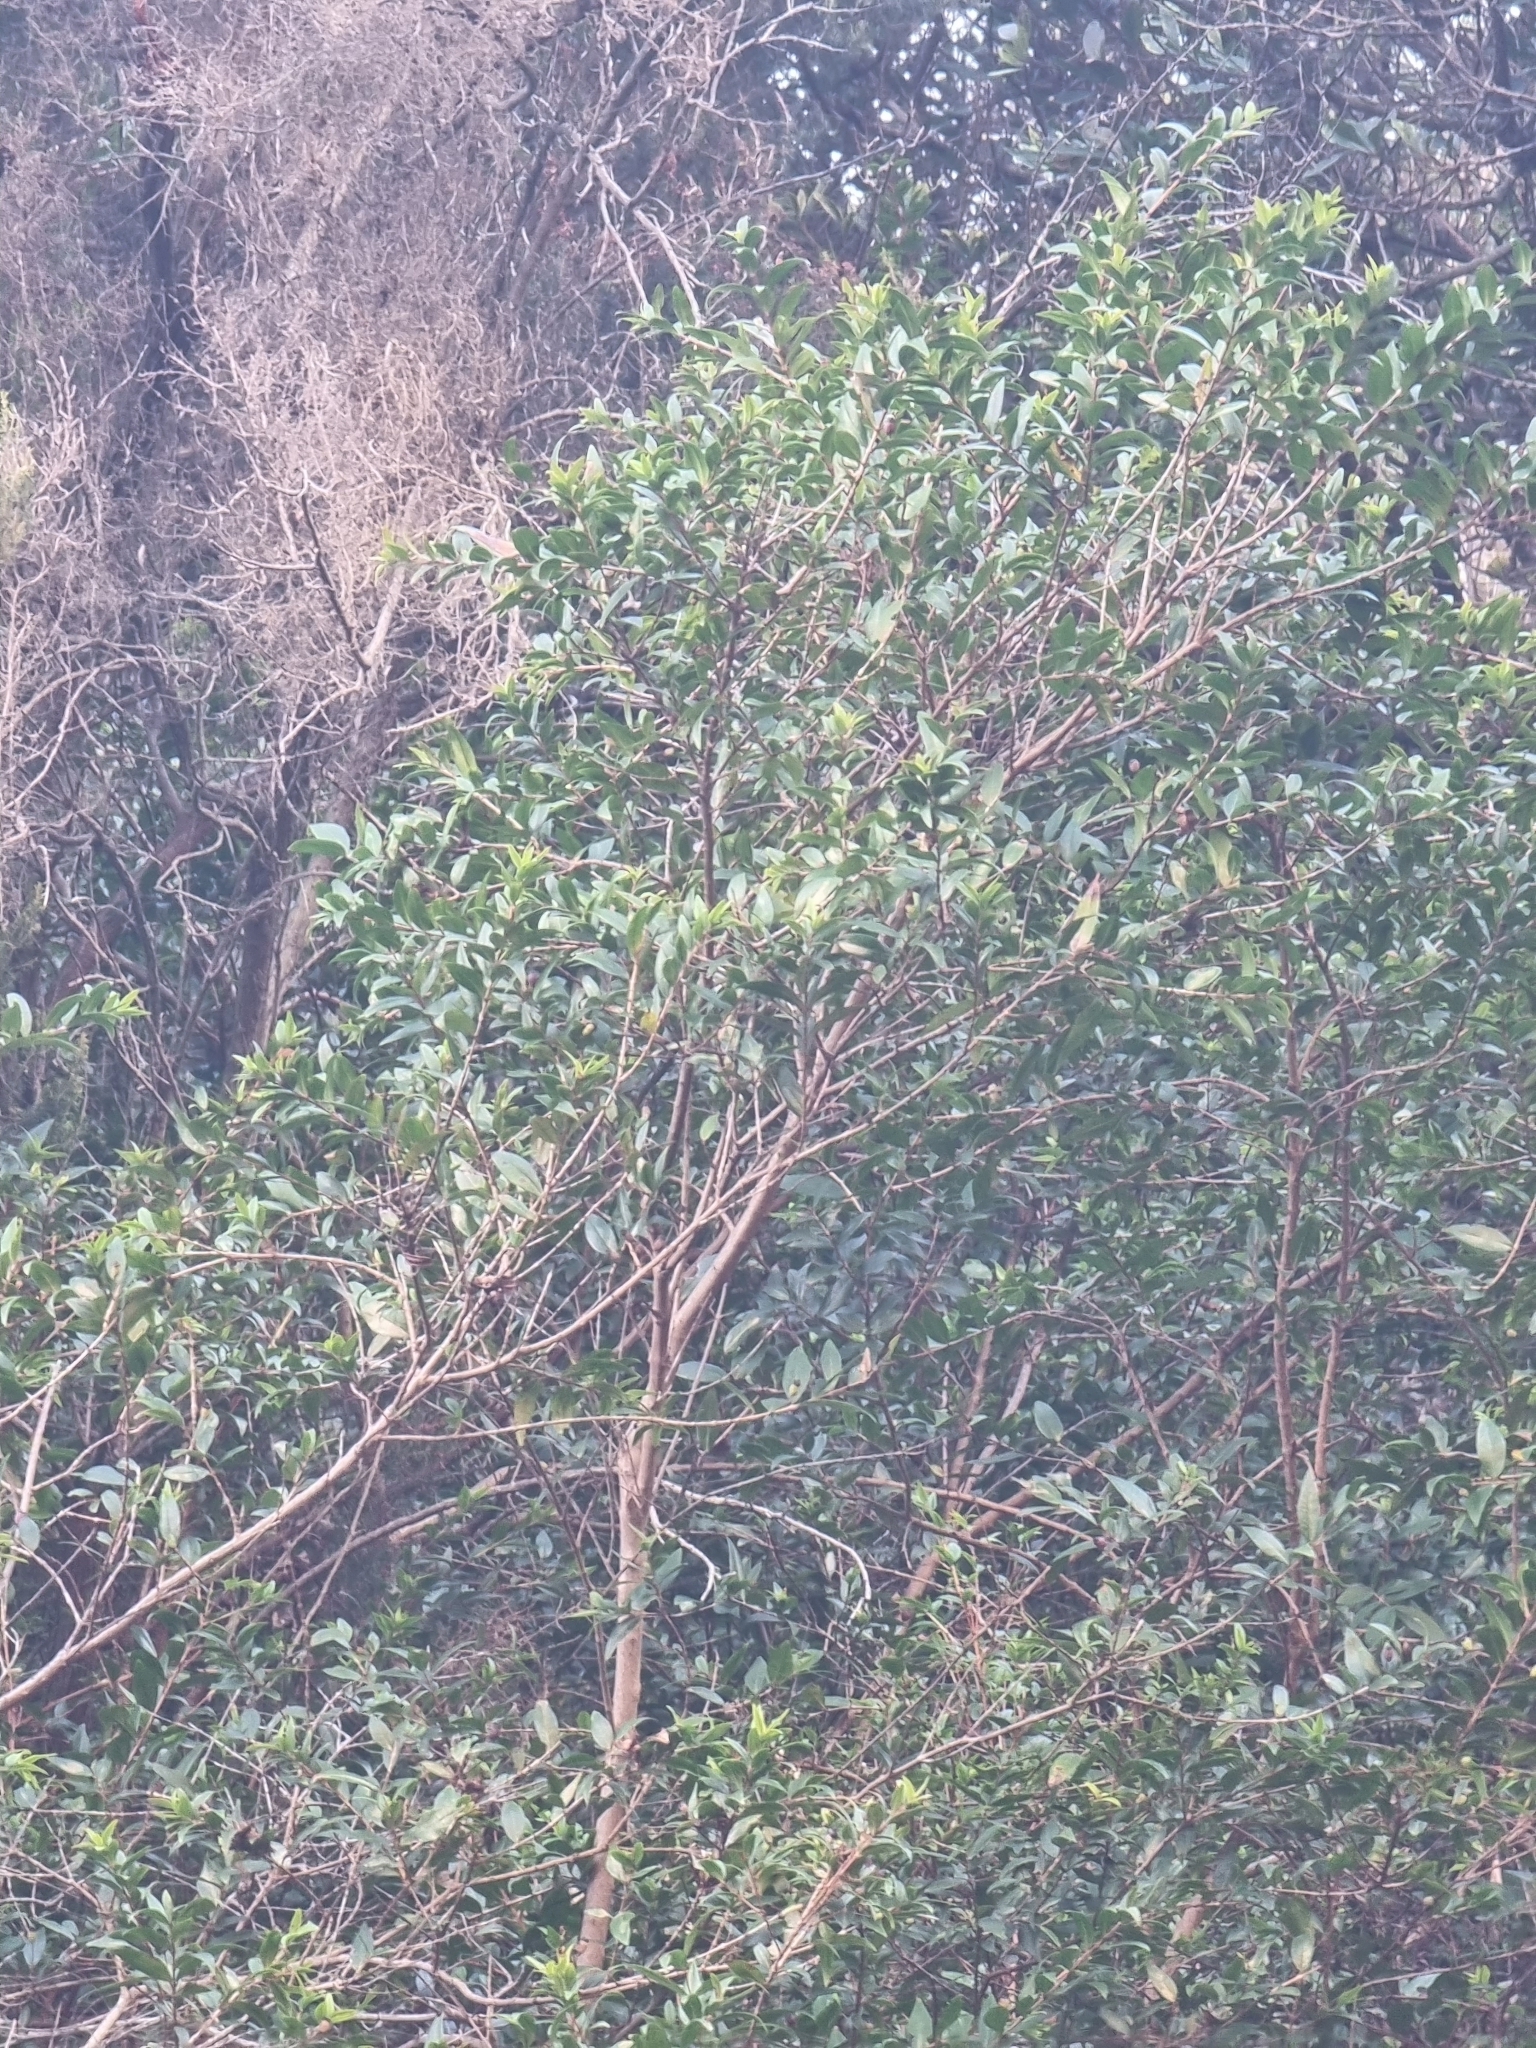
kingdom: Plantae
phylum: Tracheophyta
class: Magnoliopsida
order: Myrtales
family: Myrtaceae
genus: Myrtus
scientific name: Myrtus communis
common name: Myrtle
